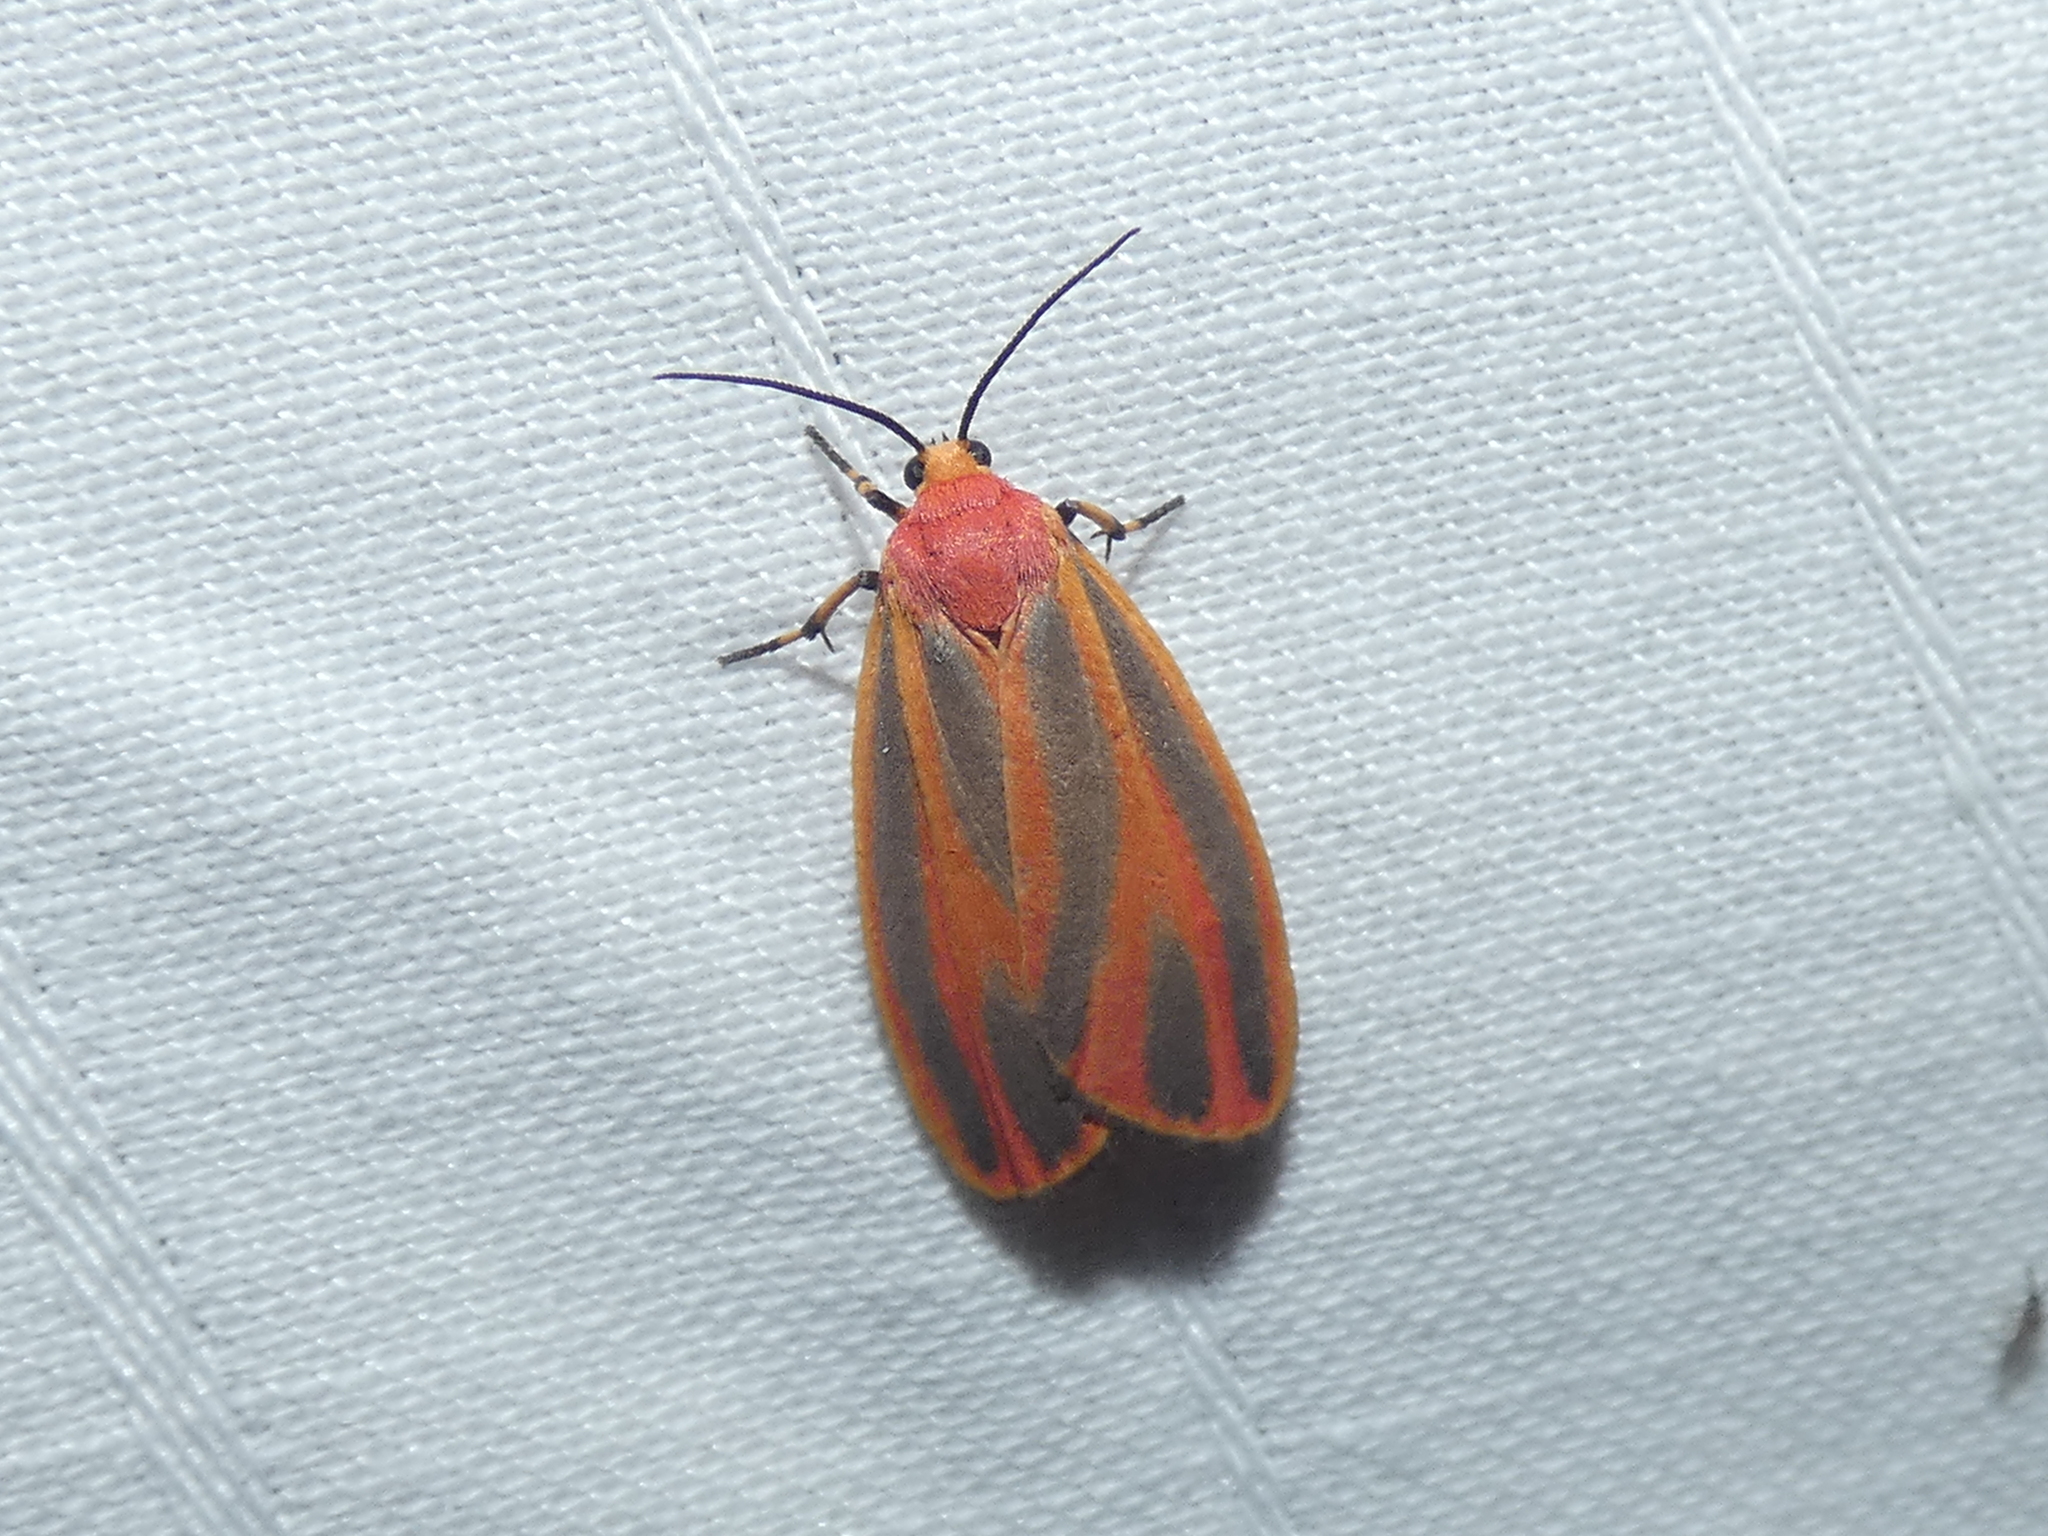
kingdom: Animalia
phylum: Arthropoda
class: Insecta
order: Lepidoptera
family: Erebidae
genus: Hypoprepia
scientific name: Hypoprepia fucosa
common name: Painted lichen moth
